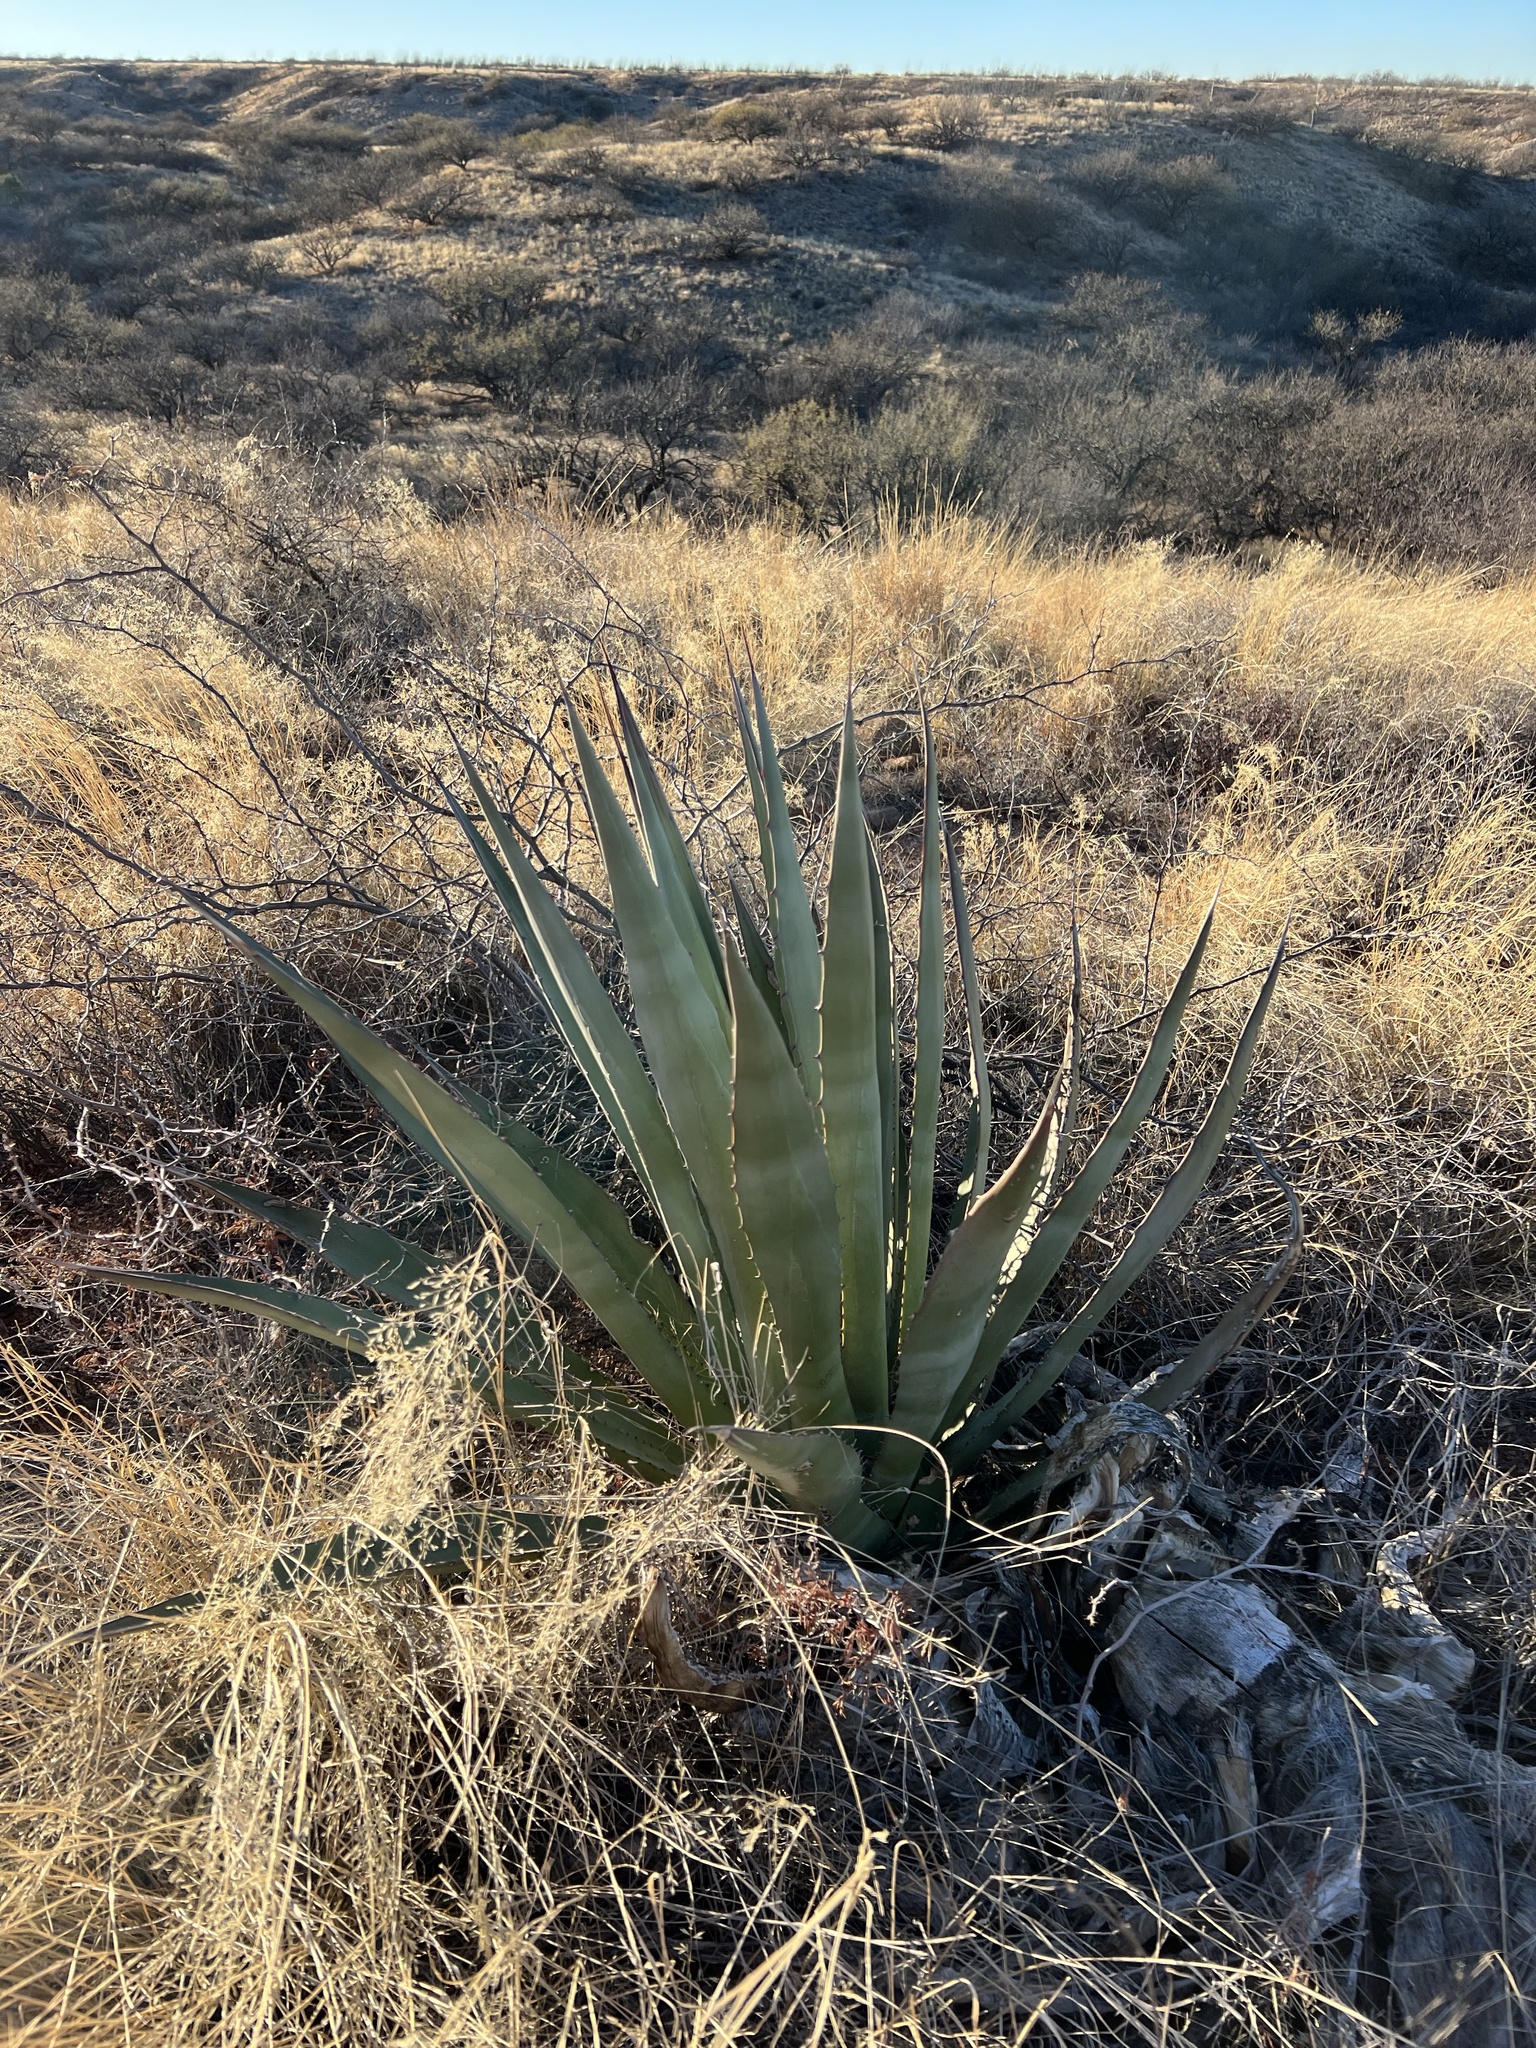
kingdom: Plantae
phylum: Tracheophyta
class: Liliopsida
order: Asparagales
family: Asparagaceae
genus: Agave
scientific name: Agave palmeri
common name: Palmer agave
